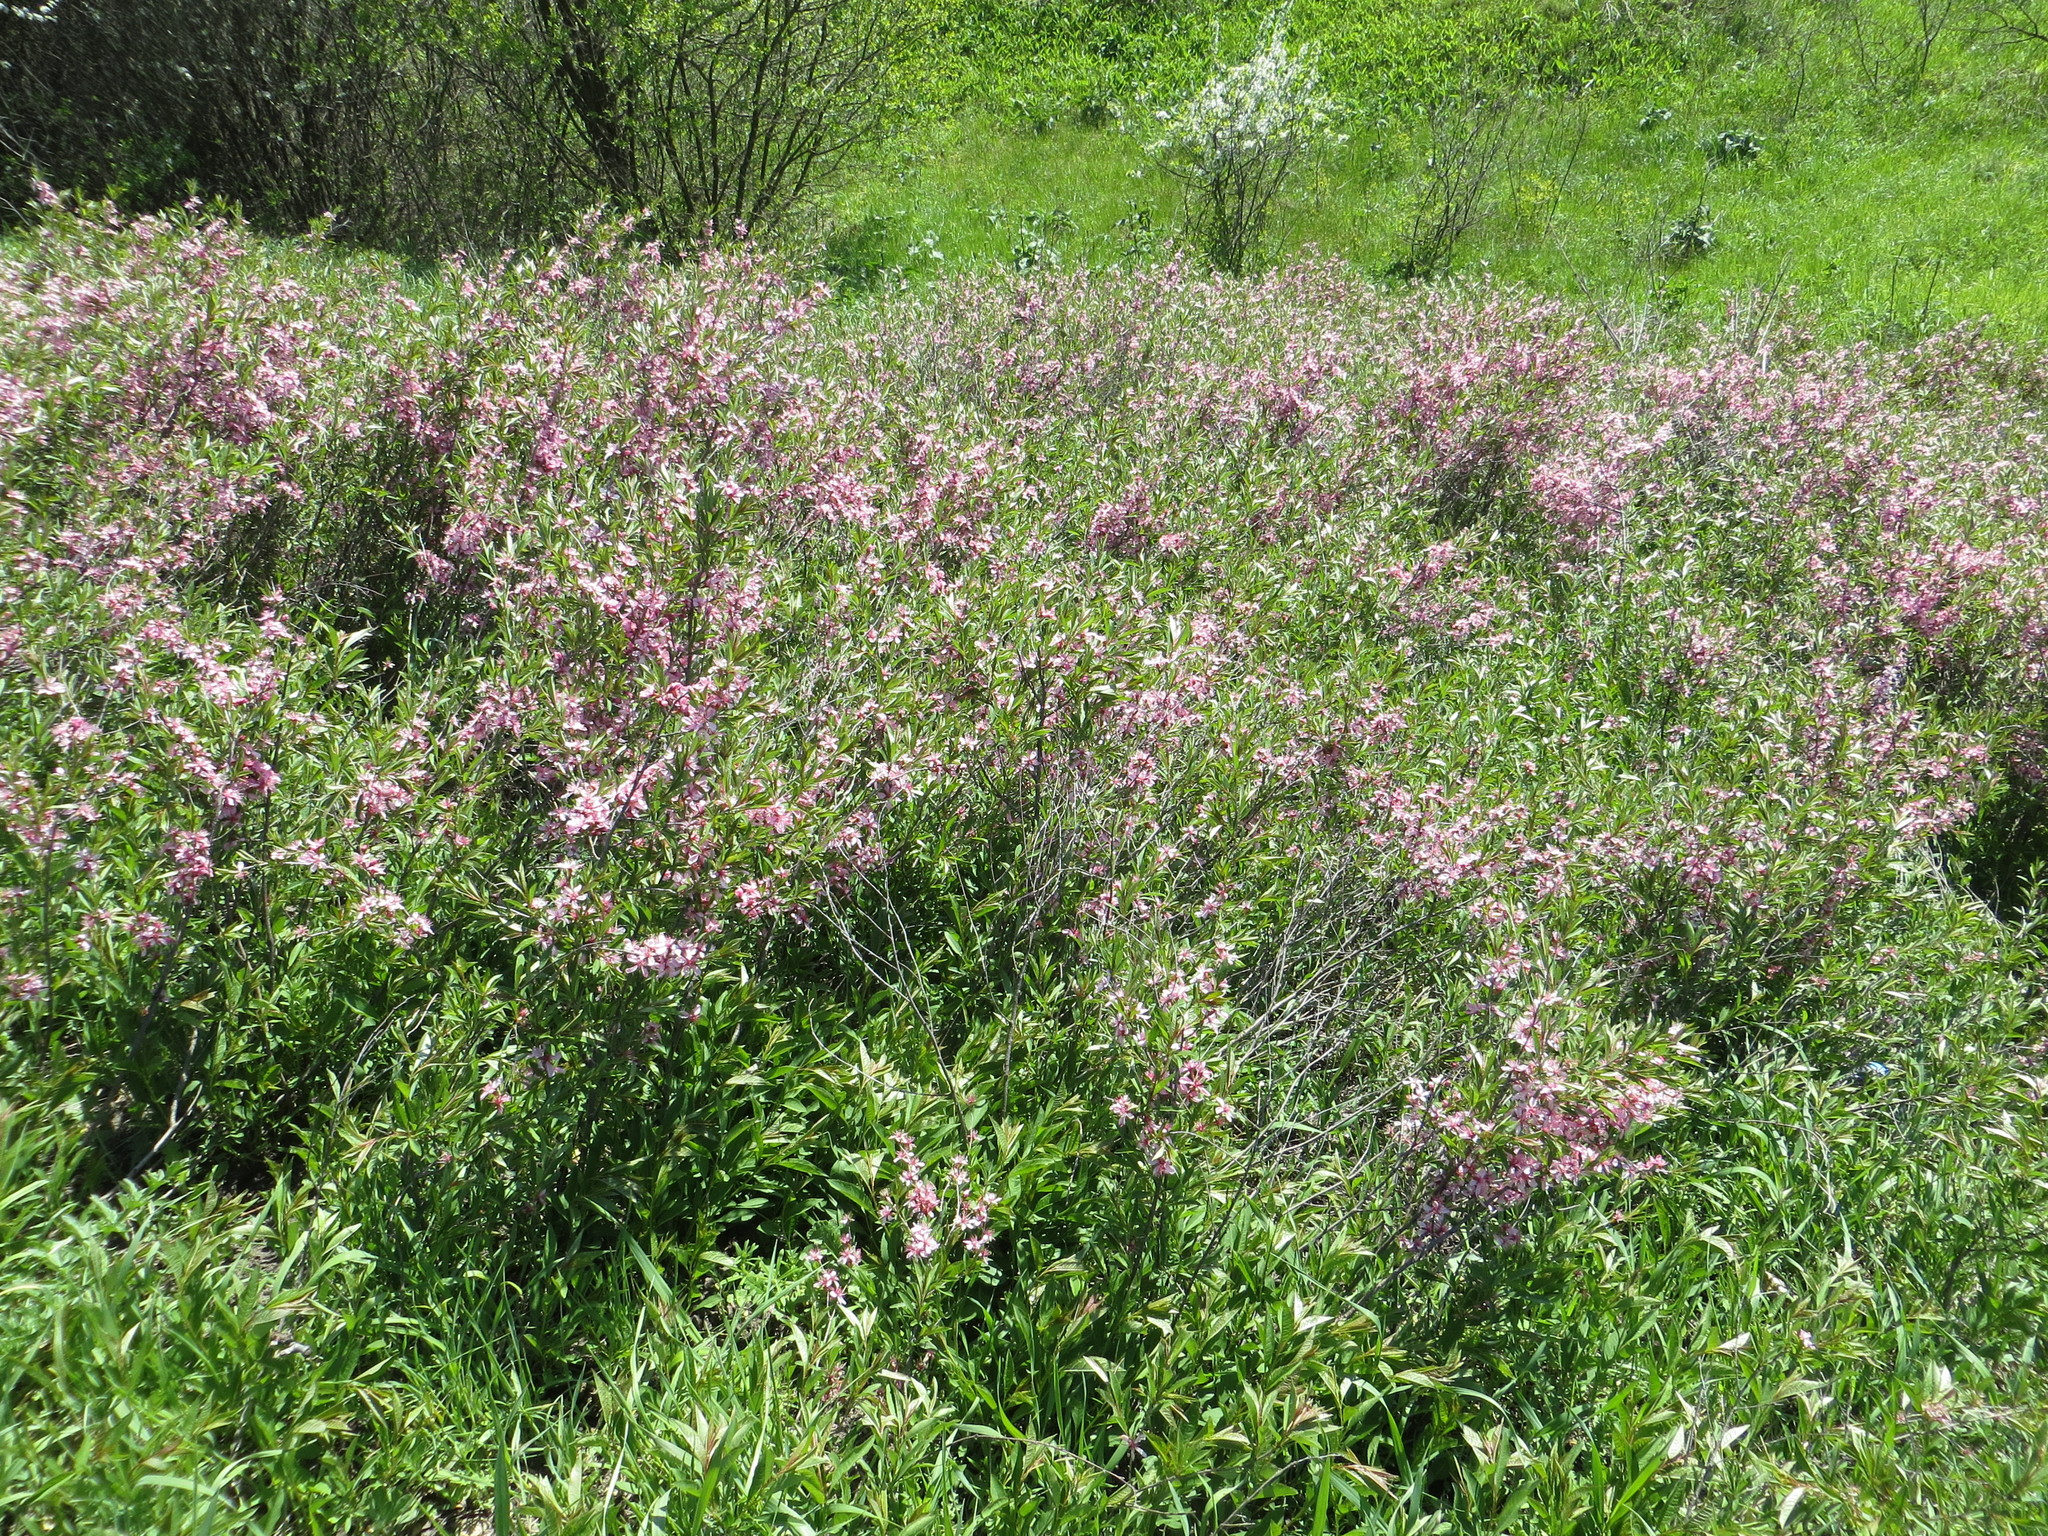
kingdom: Plantae
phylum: Tracheophyta
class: Magnoliopsida
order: Rosales
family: Rosaceae
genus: Prunus
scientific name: Prunus tenella
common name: Dwarf russian almond
